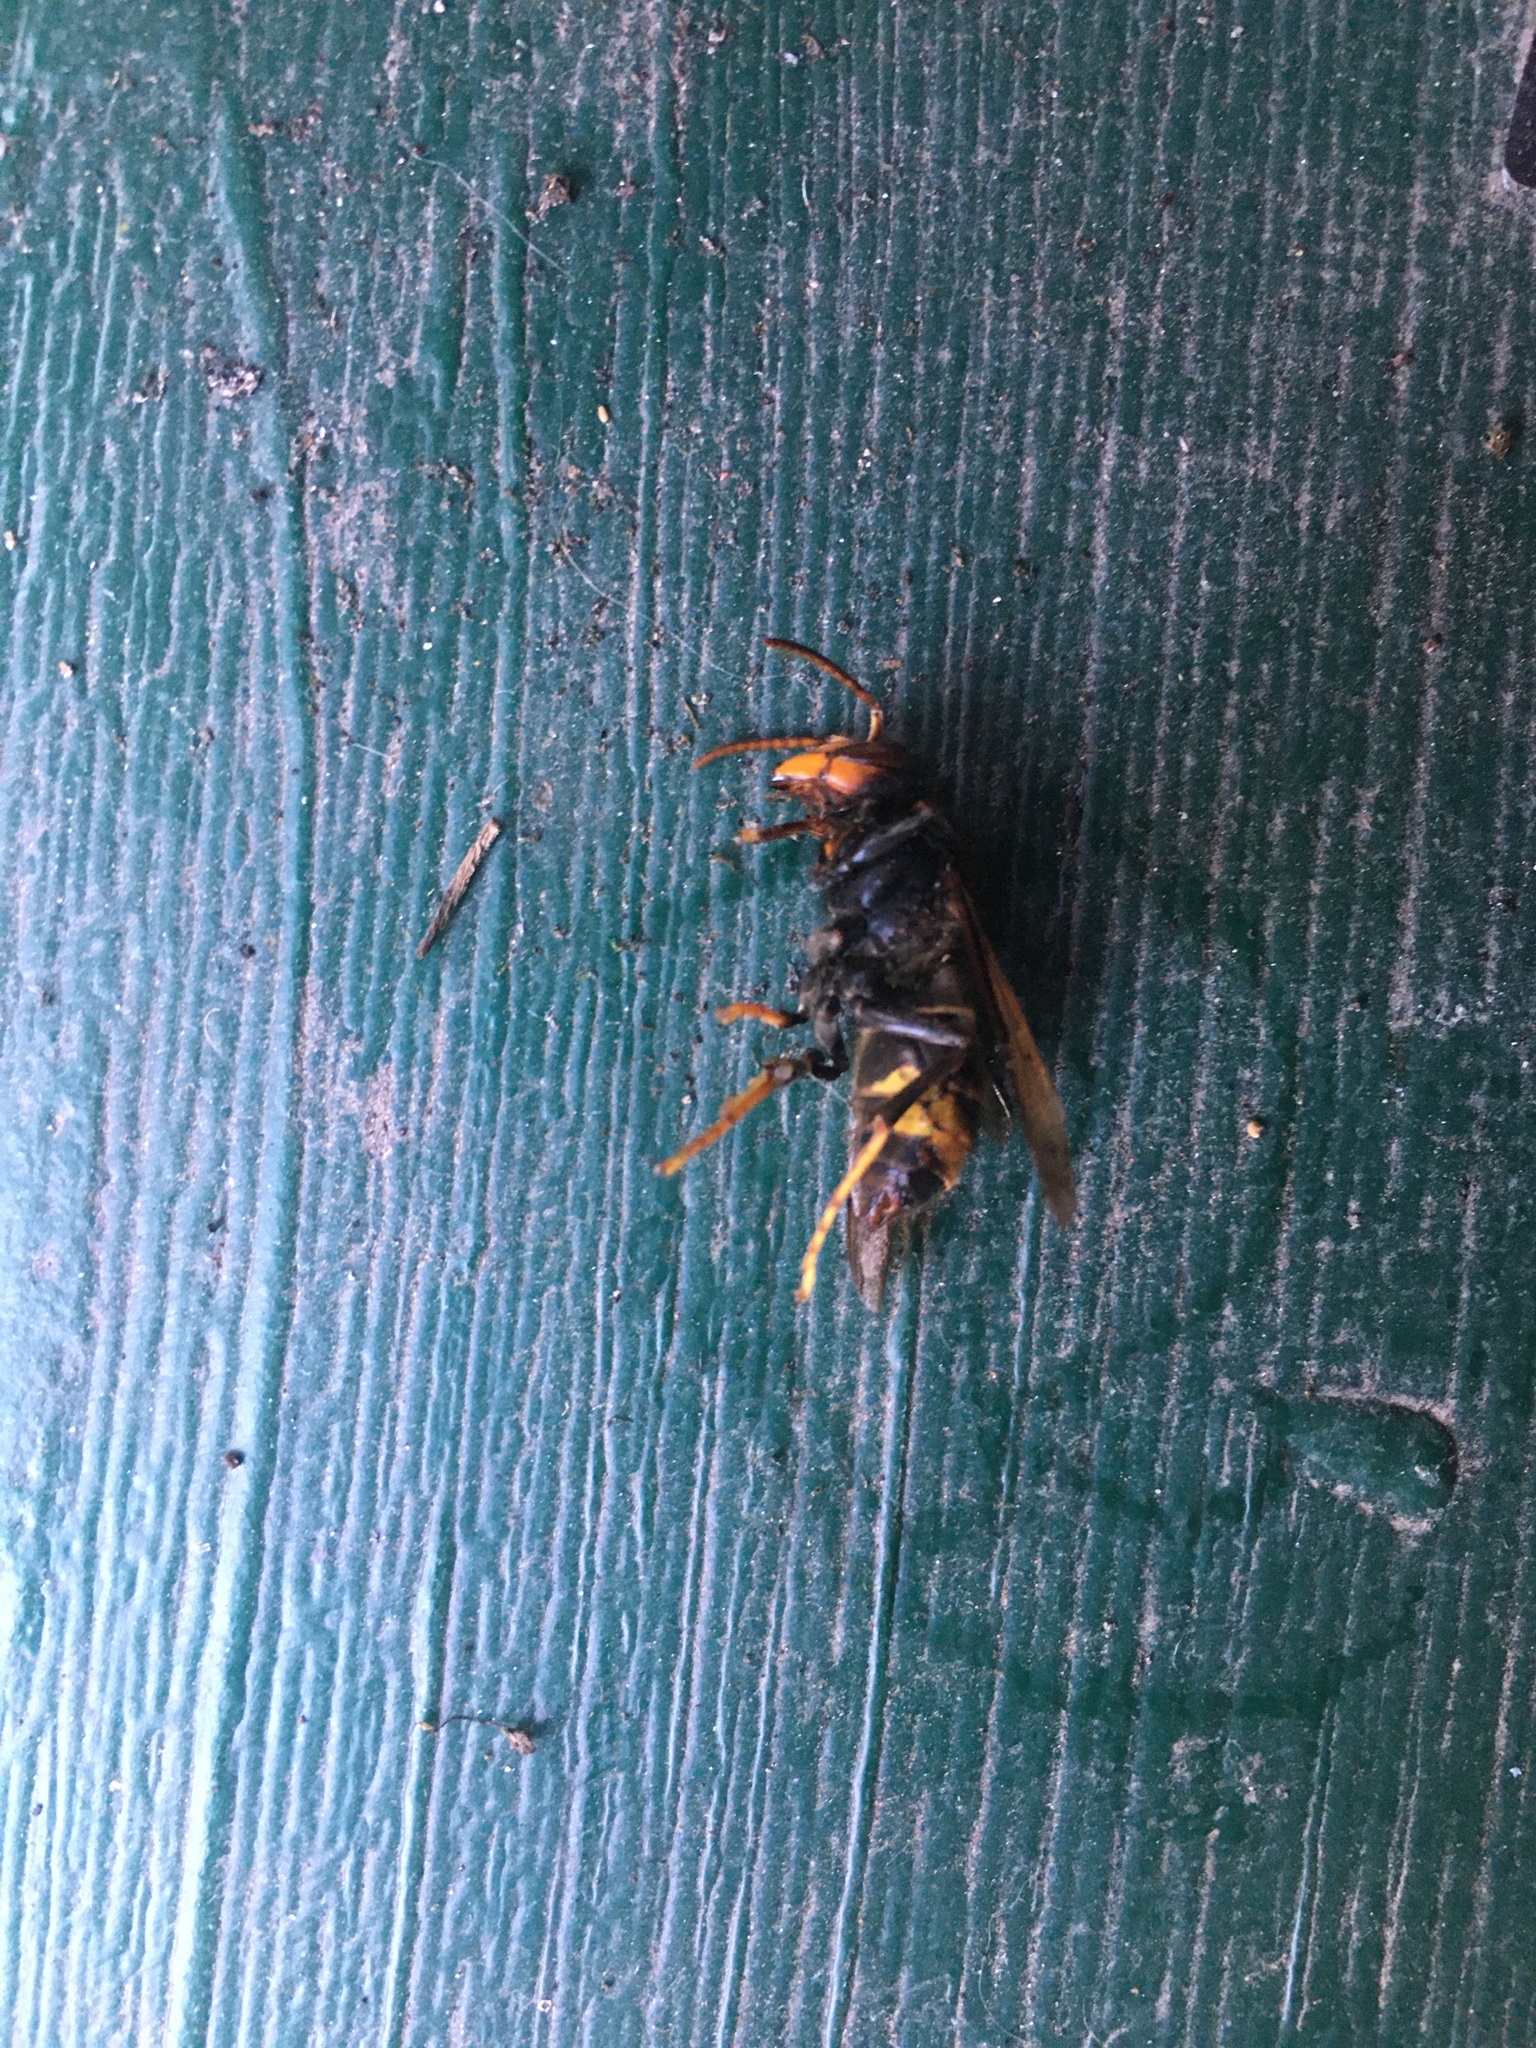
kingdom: Animalia
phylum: Arthropoda
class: Insecta
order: Hymenoptera
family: Vespidae
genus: Vespa
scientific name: Vespa velutina
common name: Asian hornet
